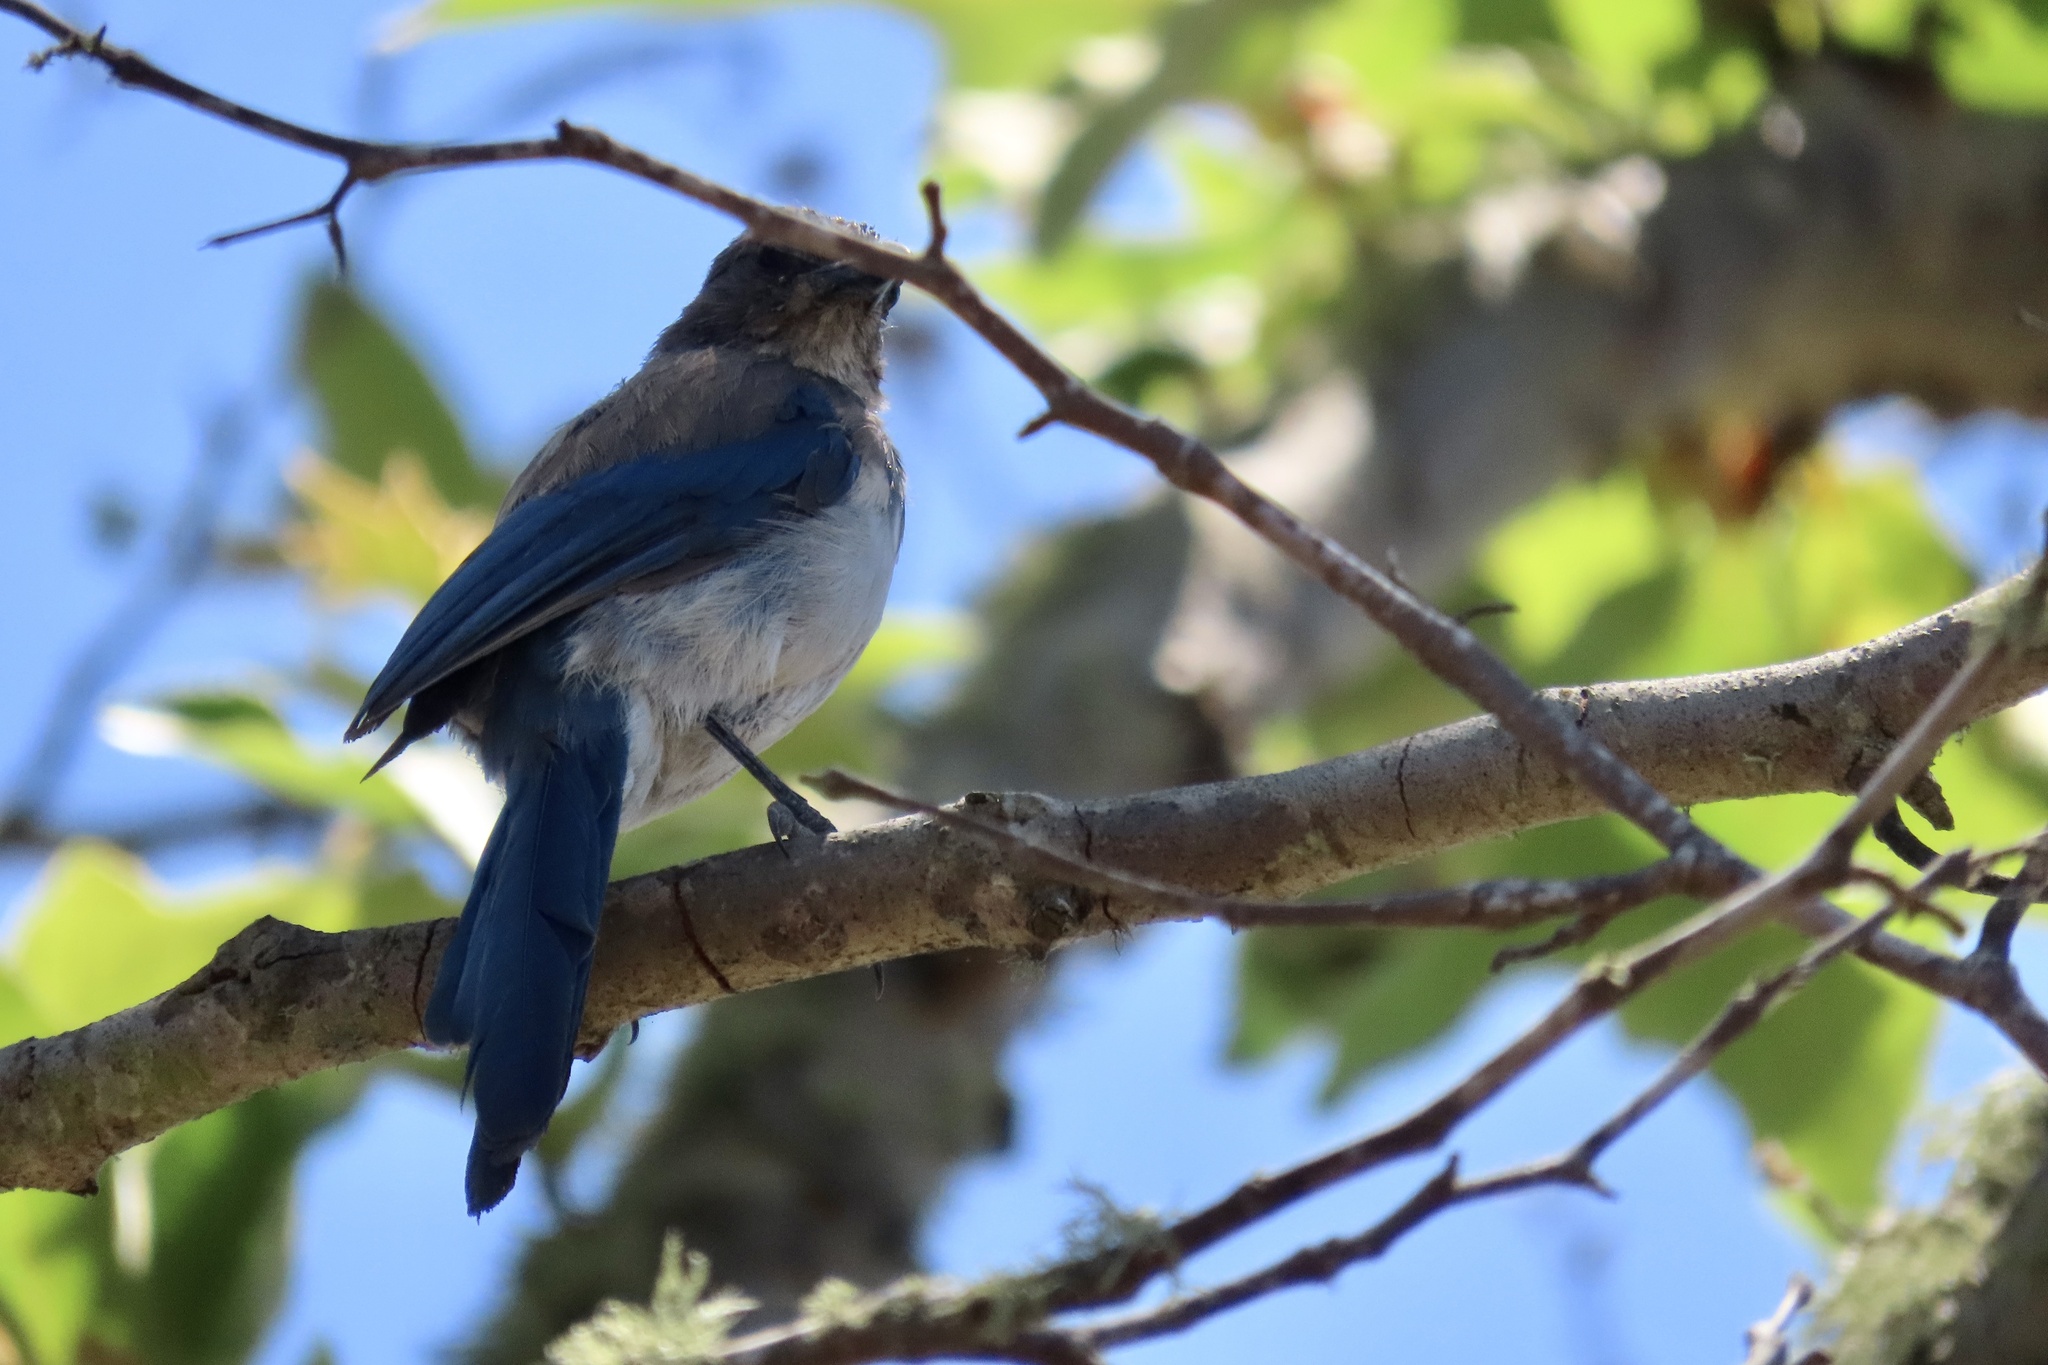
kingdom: Animalia
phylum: Chordata
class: Aves
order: Passeriformes
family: Corvidae
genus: Aphelocoma
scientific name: Aphelocoma californica
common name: California scrub-jay
